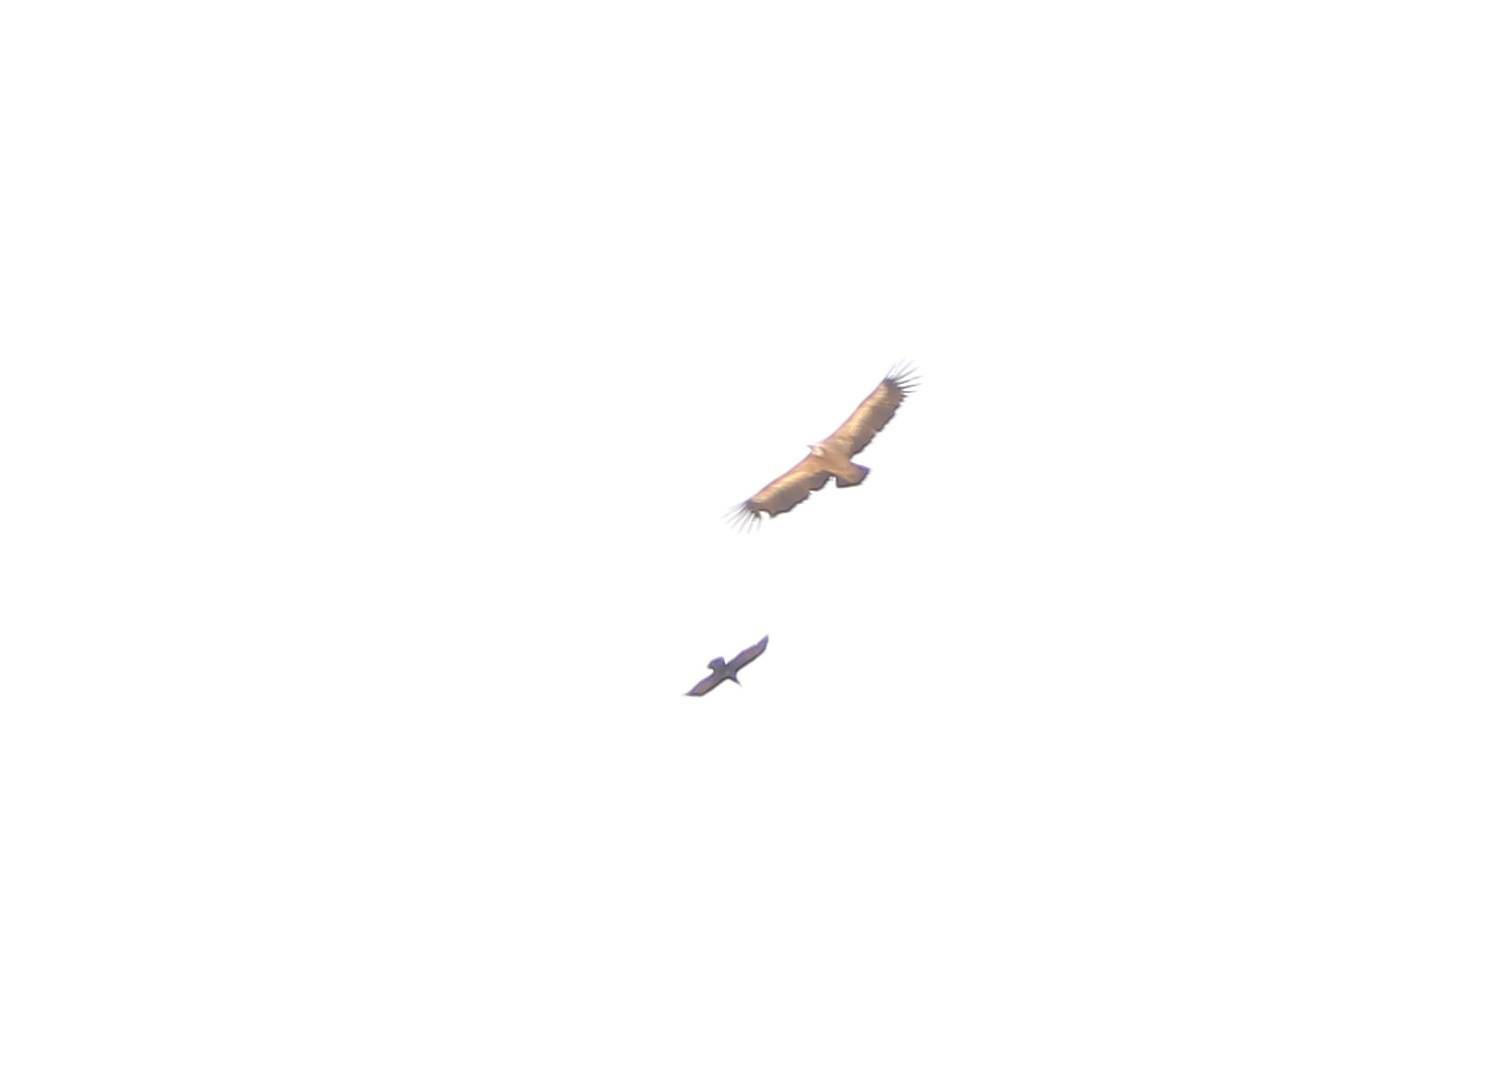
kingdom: Animalia
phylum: Chordata
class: Aves
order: Accipitriformes
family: Accipitridae
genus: Gyps
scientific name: Gyps fulvus
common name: Griffon vulture
